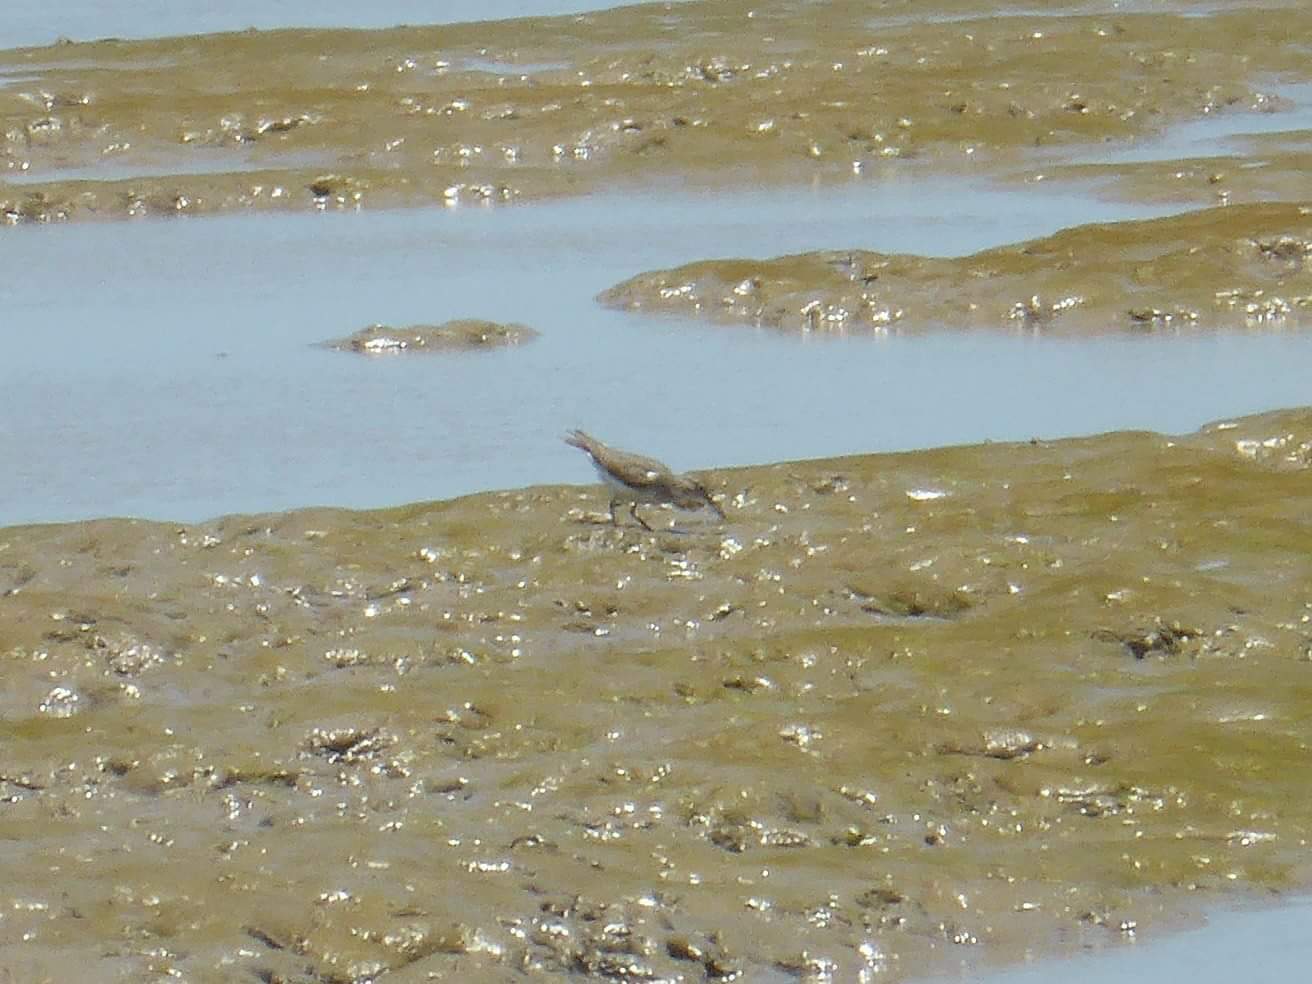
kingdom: Animalia
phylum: Chordata
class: Aves
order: Charadriiformes
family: Scolopacidae
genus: Actitis
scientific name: Actitis macularius
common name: Spotted sandpiper
